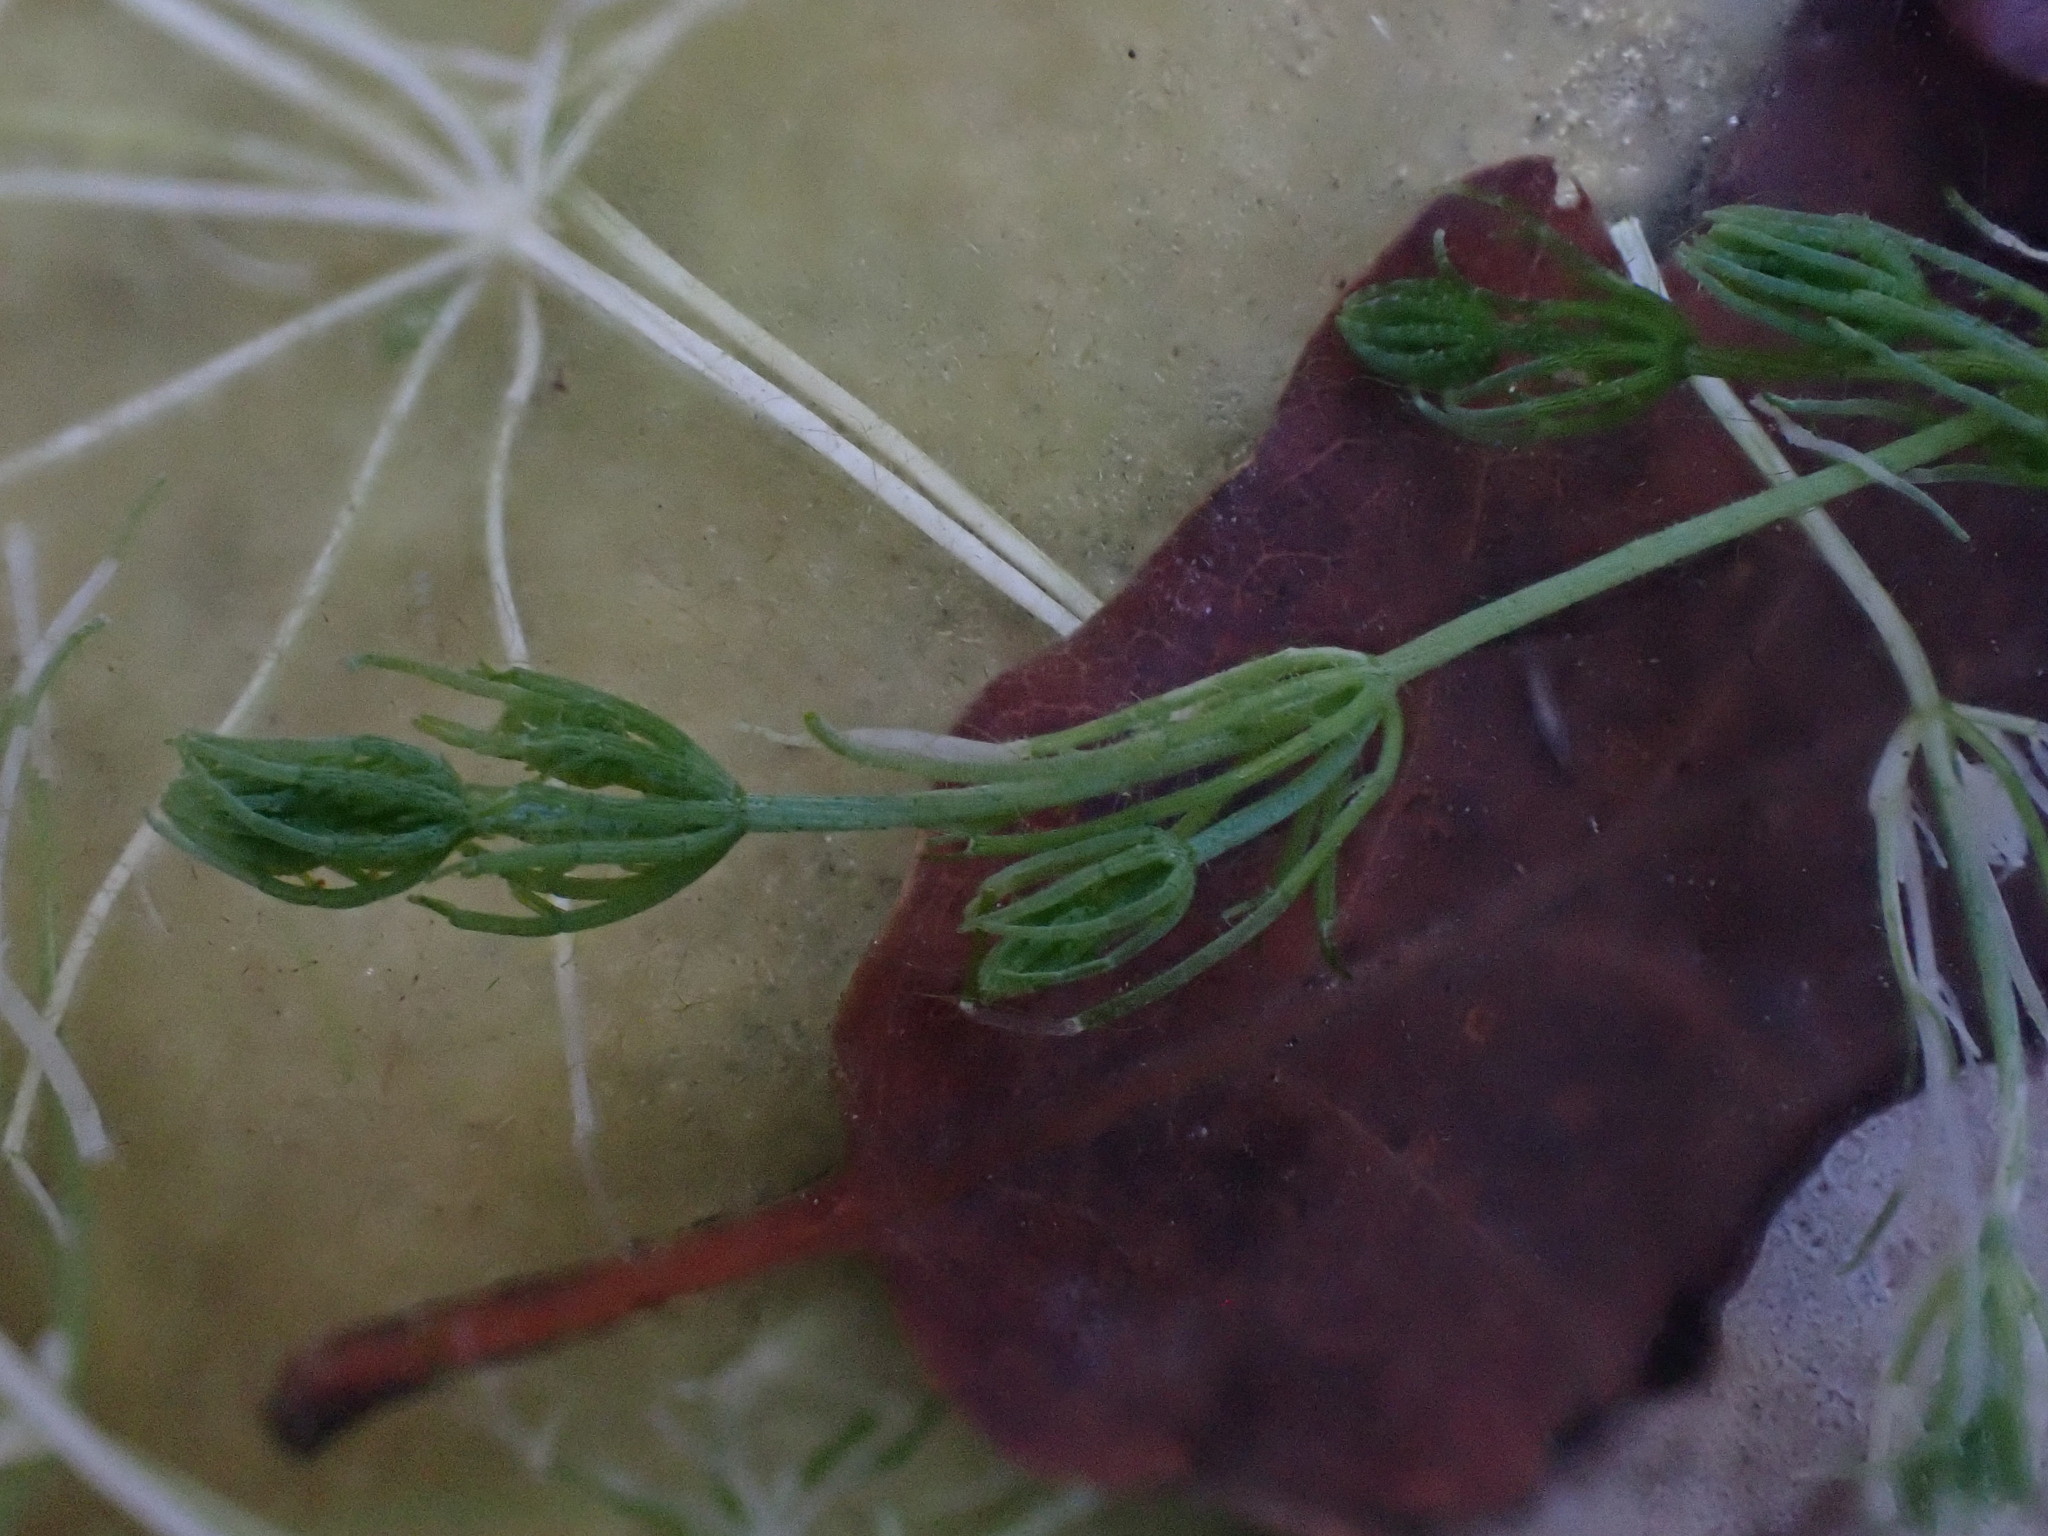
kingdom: Plantae
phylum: Charophyta
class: Charophyceae
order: Charales
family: Characeae
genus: Chara
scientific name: Chara vulgaris
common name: Common stonewort
